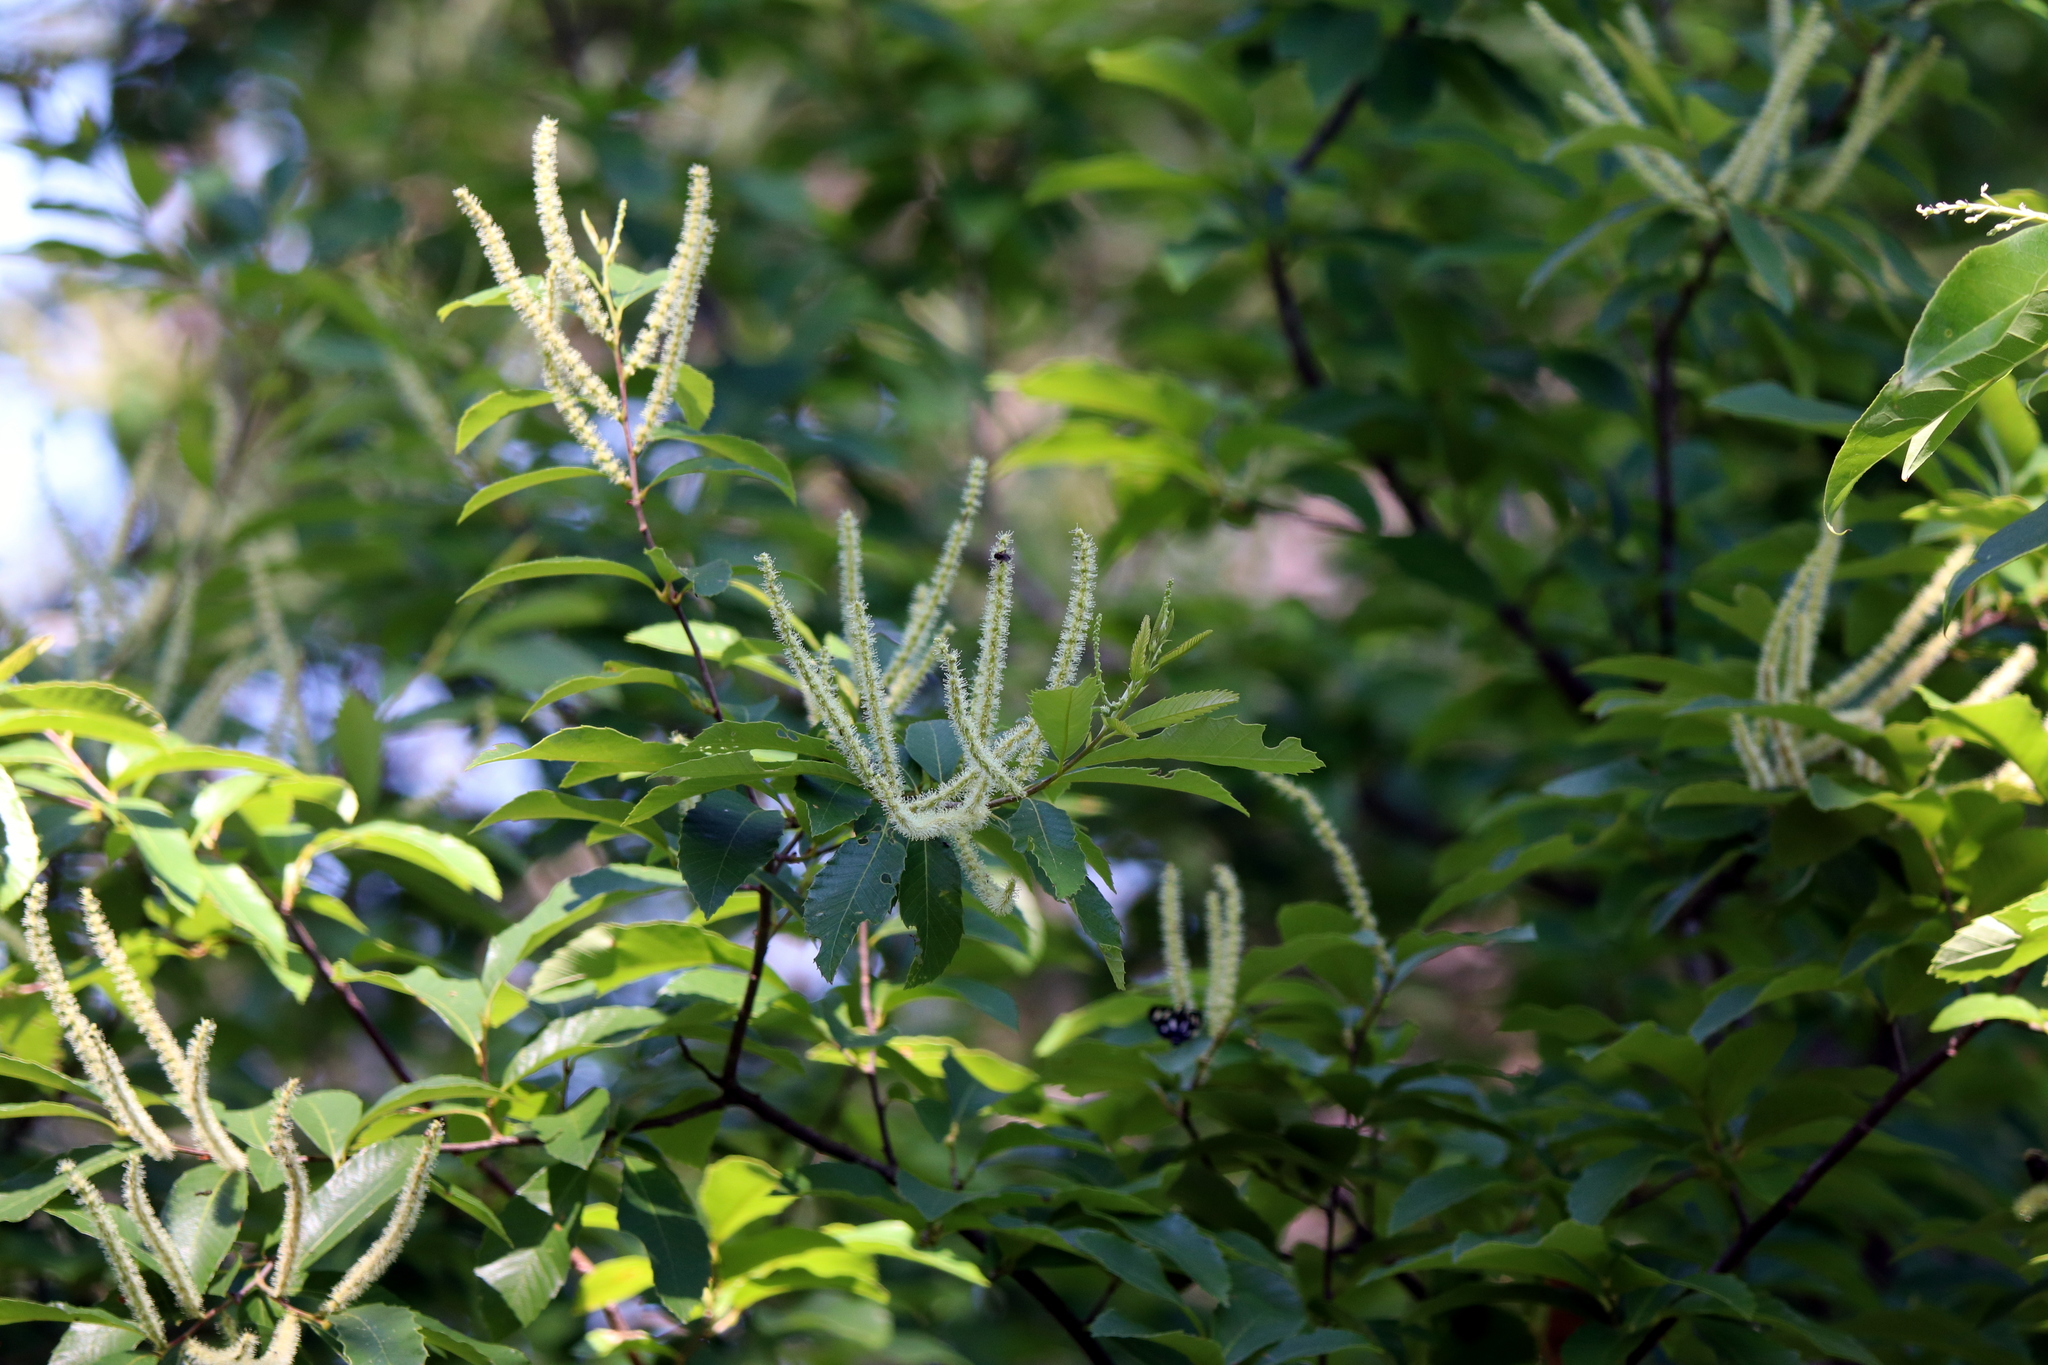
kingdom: Plantae
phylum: Tracheophyta
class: Magnoliopsida
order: Fagales
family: Fagaceae
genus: Castanea
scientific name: Castanea pumila
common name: Chinkapin
